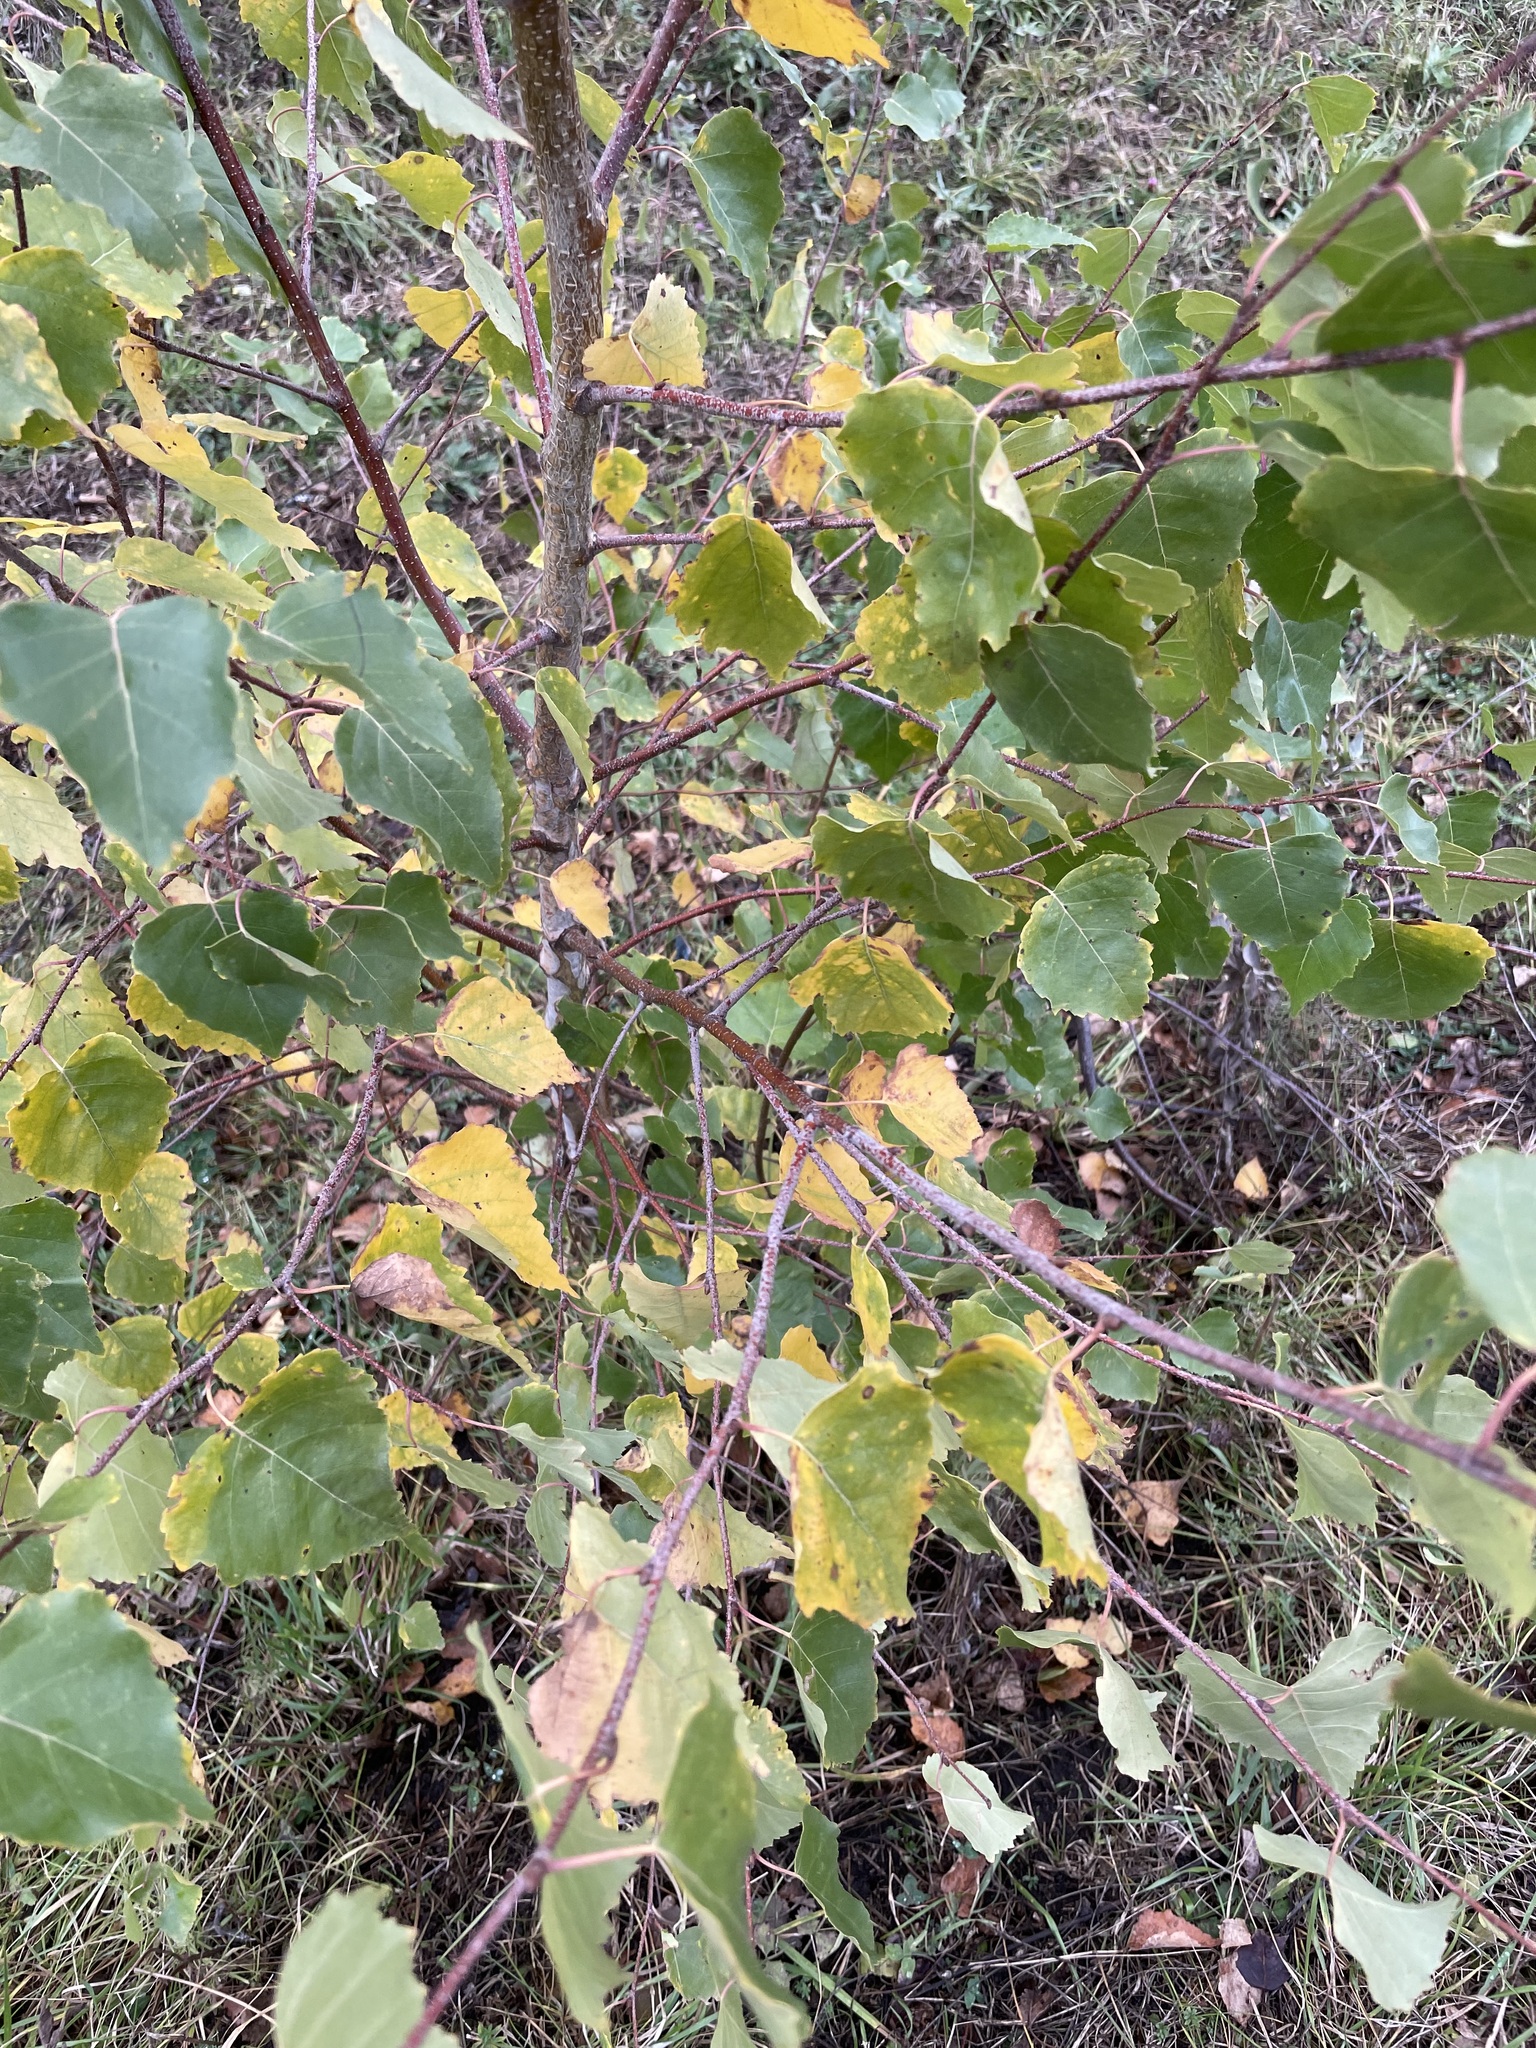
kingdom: Plantae
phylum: Tracheophyta
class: Magnoliopsida
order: Fagales
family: Betulaceae
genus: Betula
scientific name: Betula pendula
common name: Silver birch
